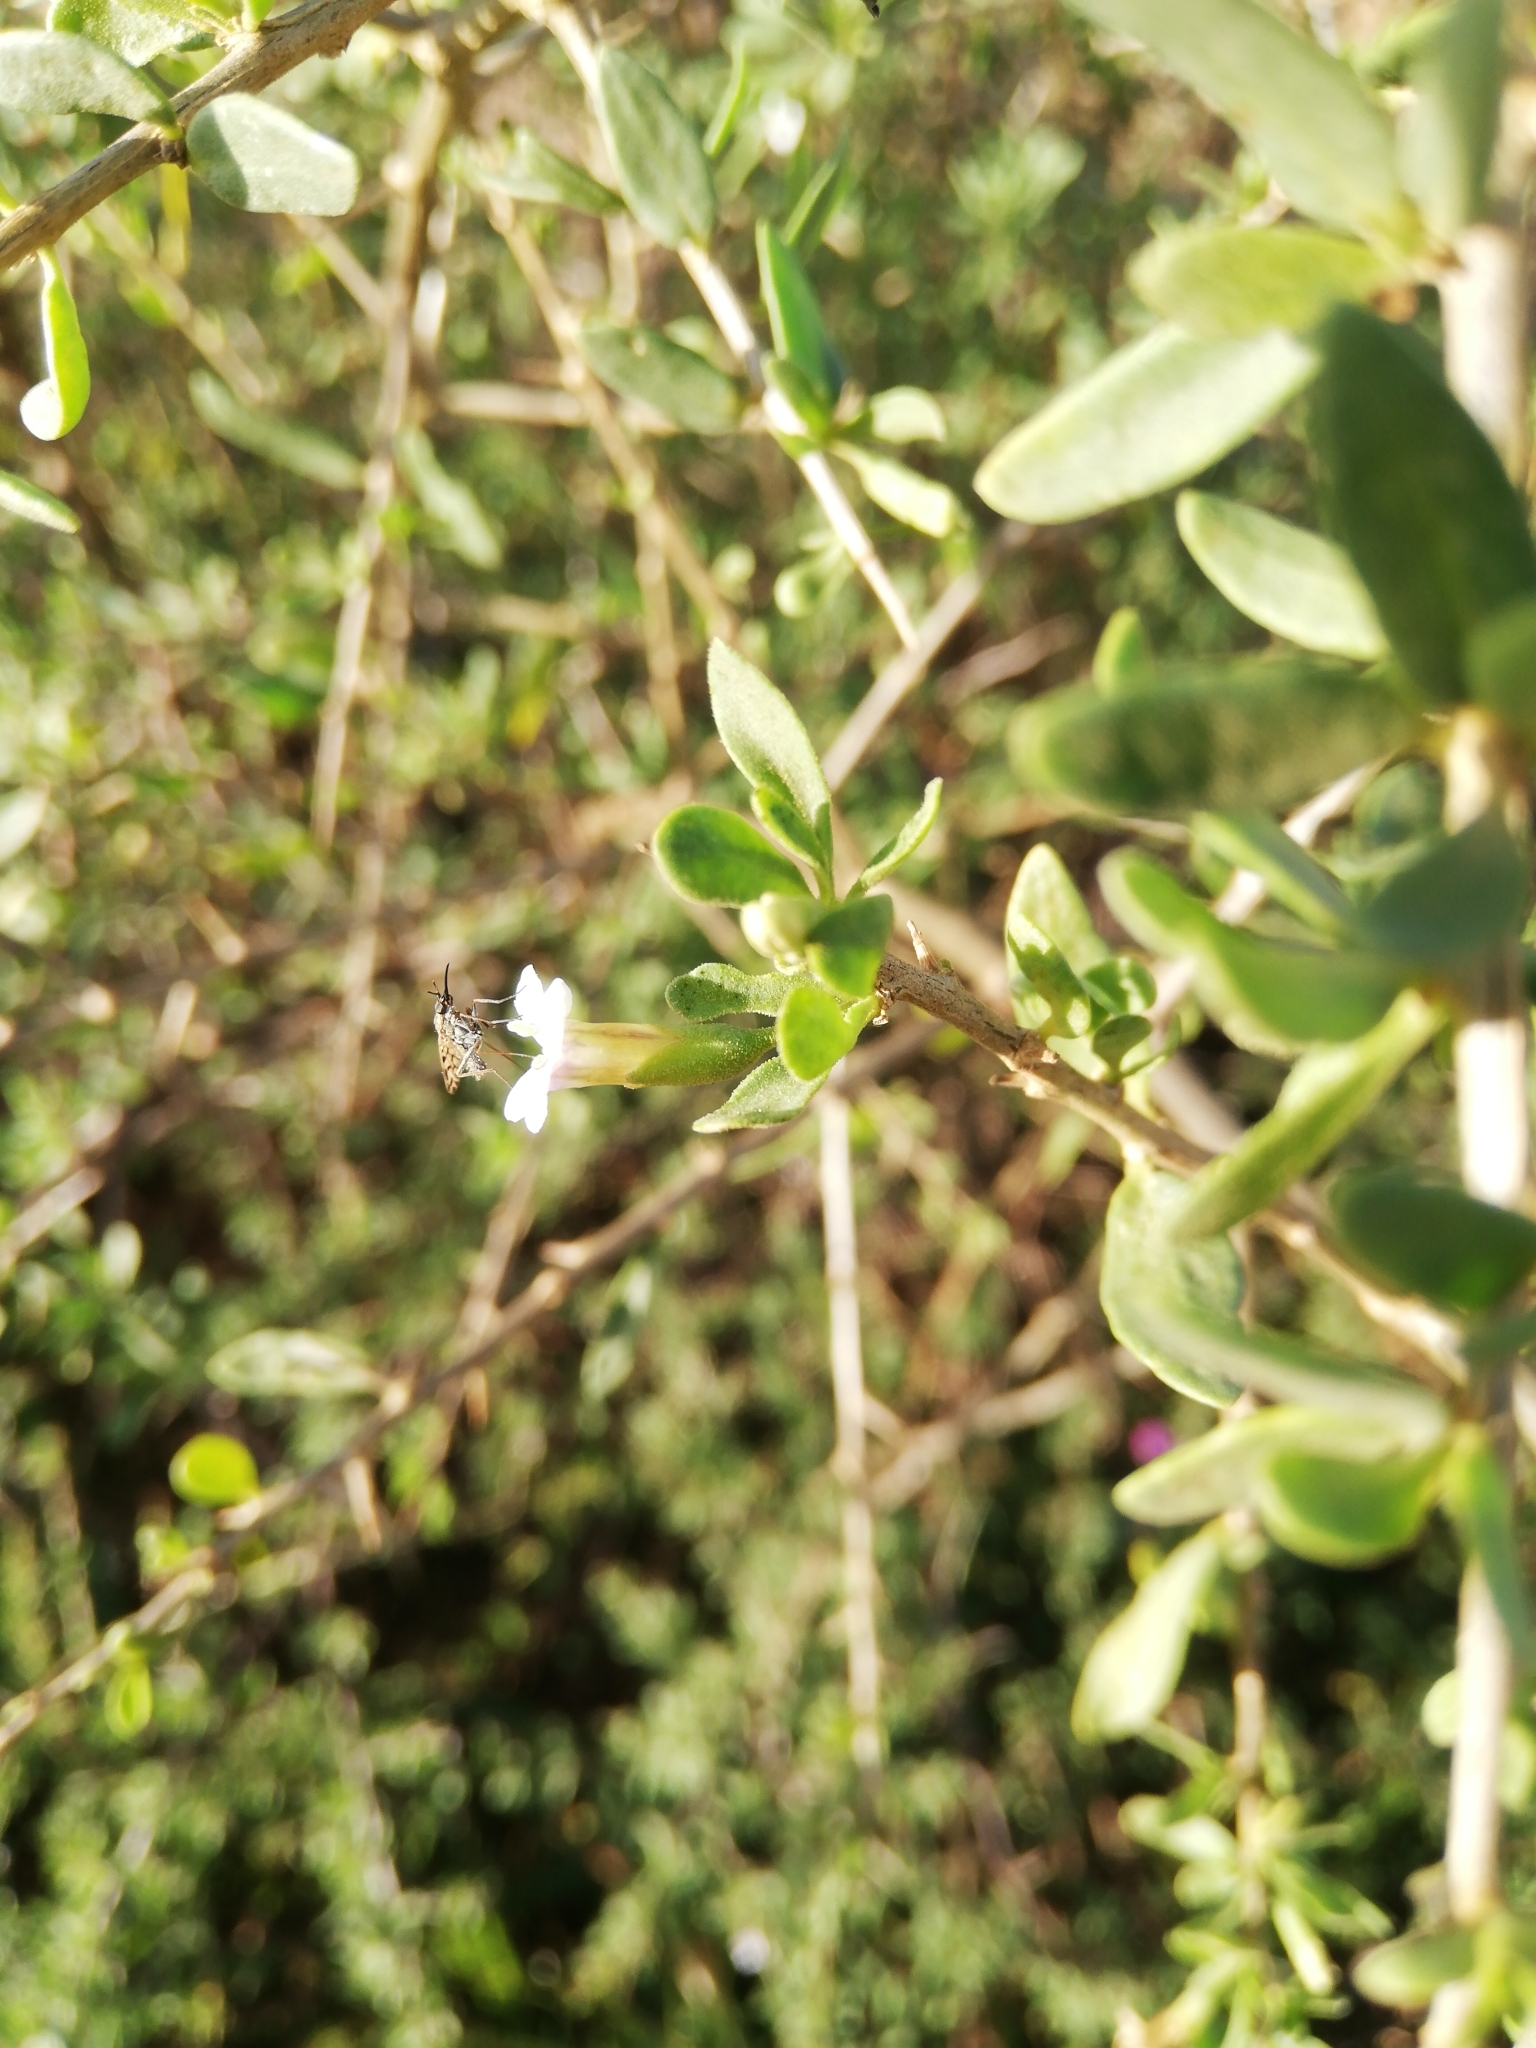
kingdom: Plantae
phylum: Tracheophyta
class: Magnoliopsida
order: Solanales
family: Solanaceae
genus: Lycium
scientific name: Lycium ferocissimum
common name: African boxthorn
